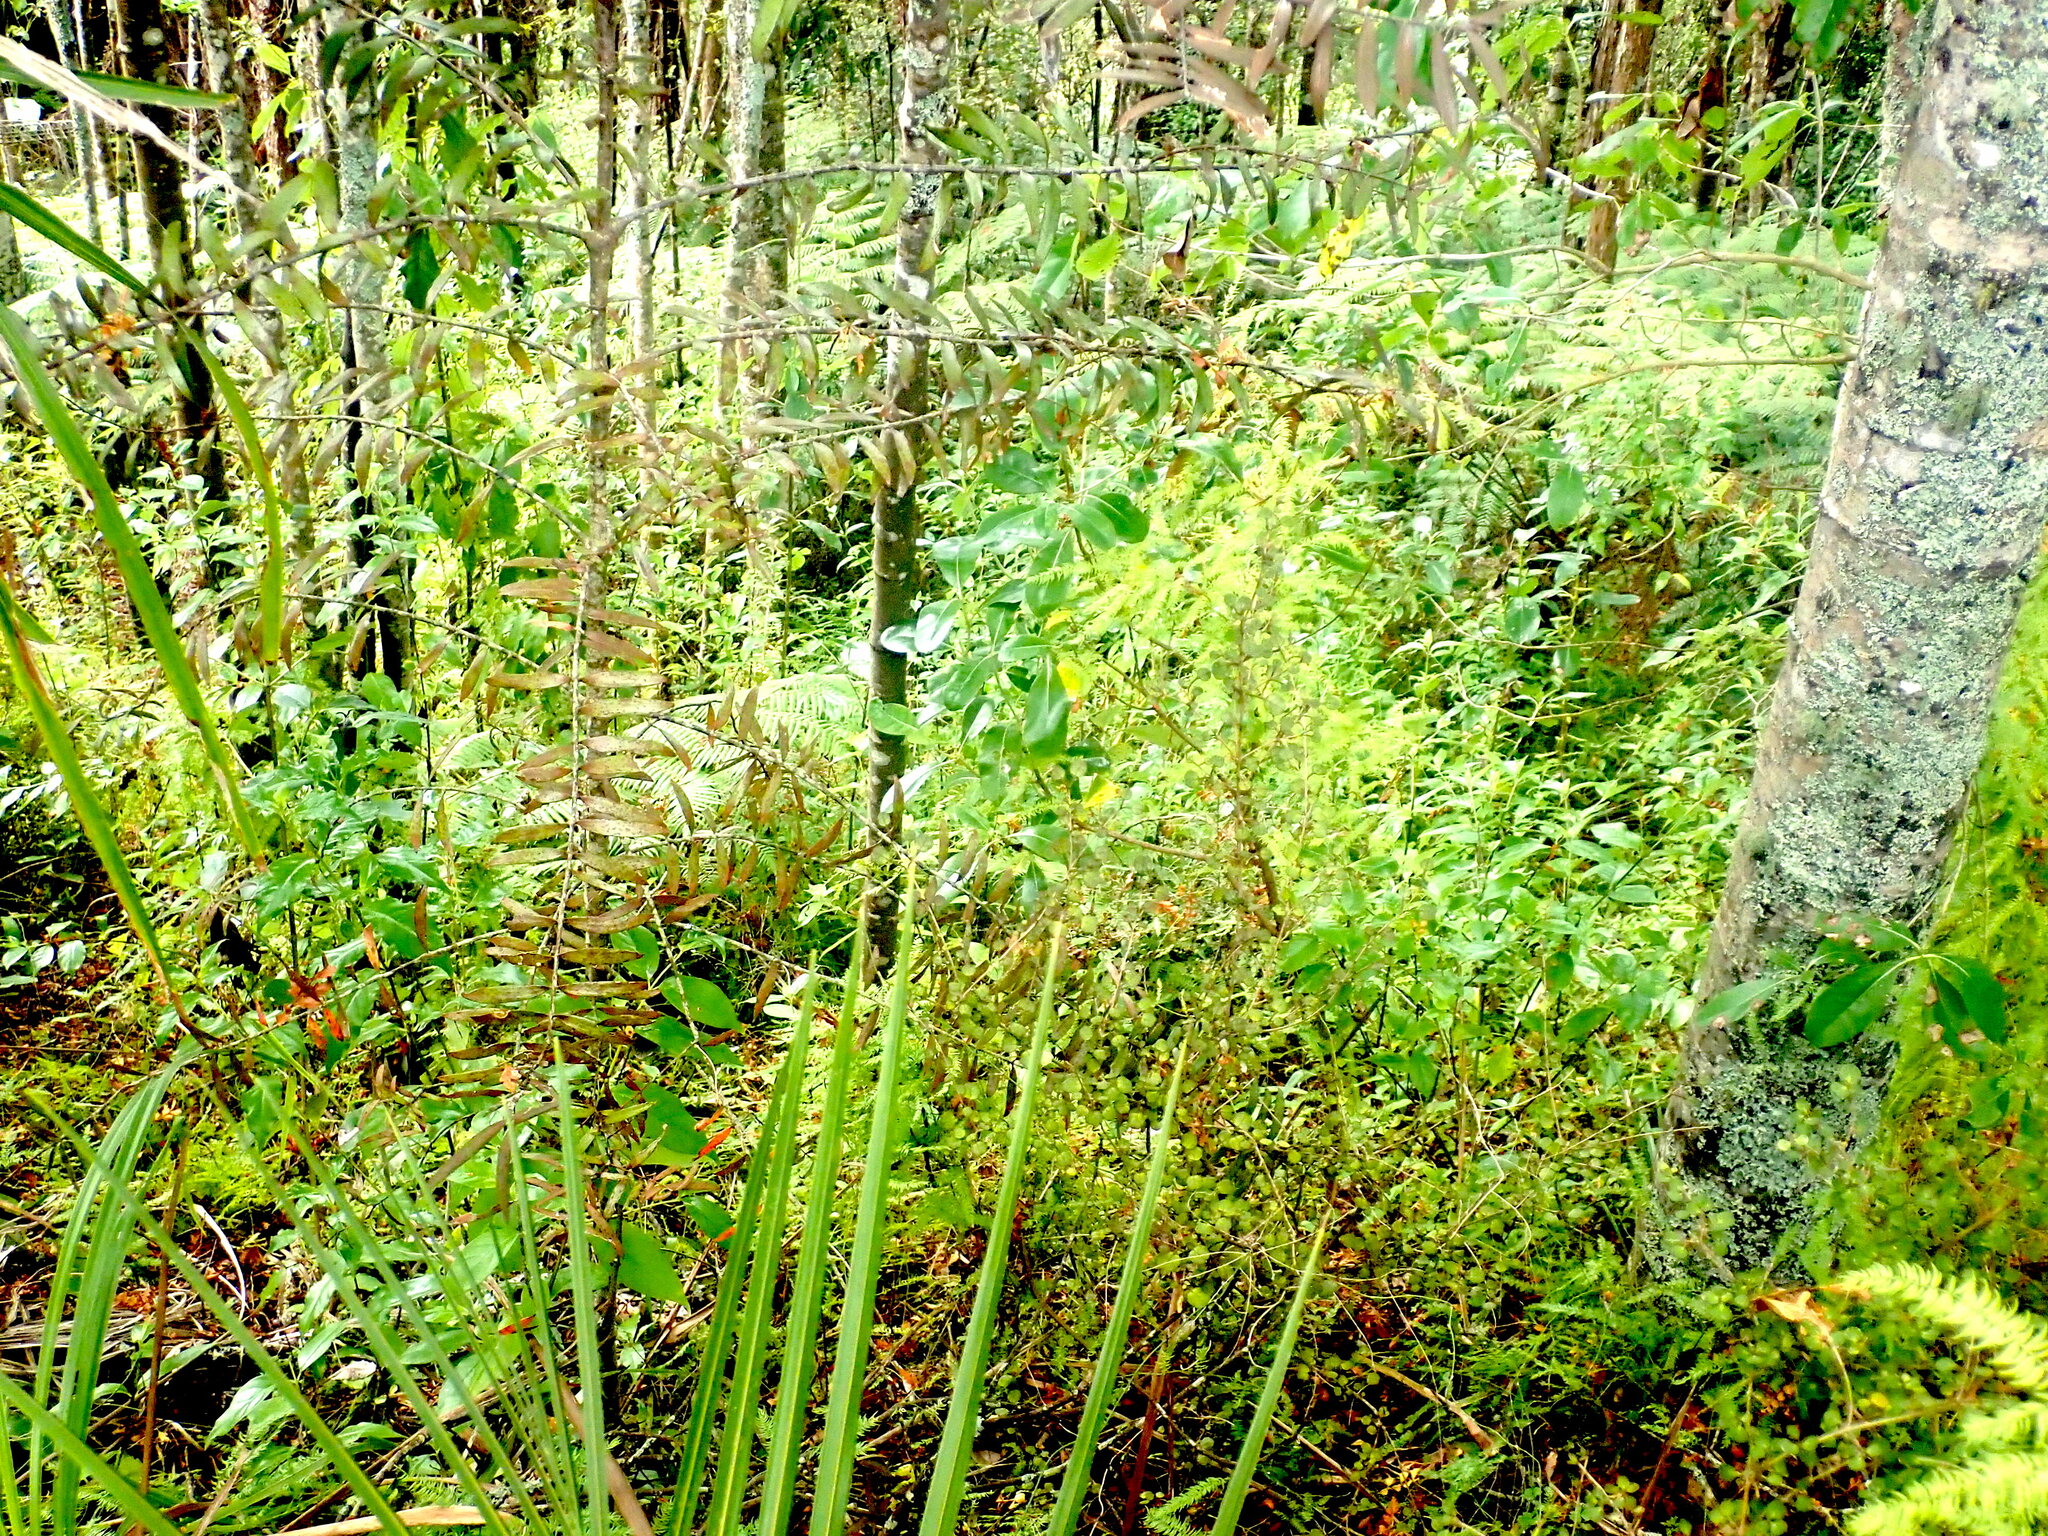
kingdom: Plantae
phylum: Tracheophyta
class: Pinopsida
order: Pinales
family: Araucariaceae
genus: Agathis
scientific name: Agathis australis
